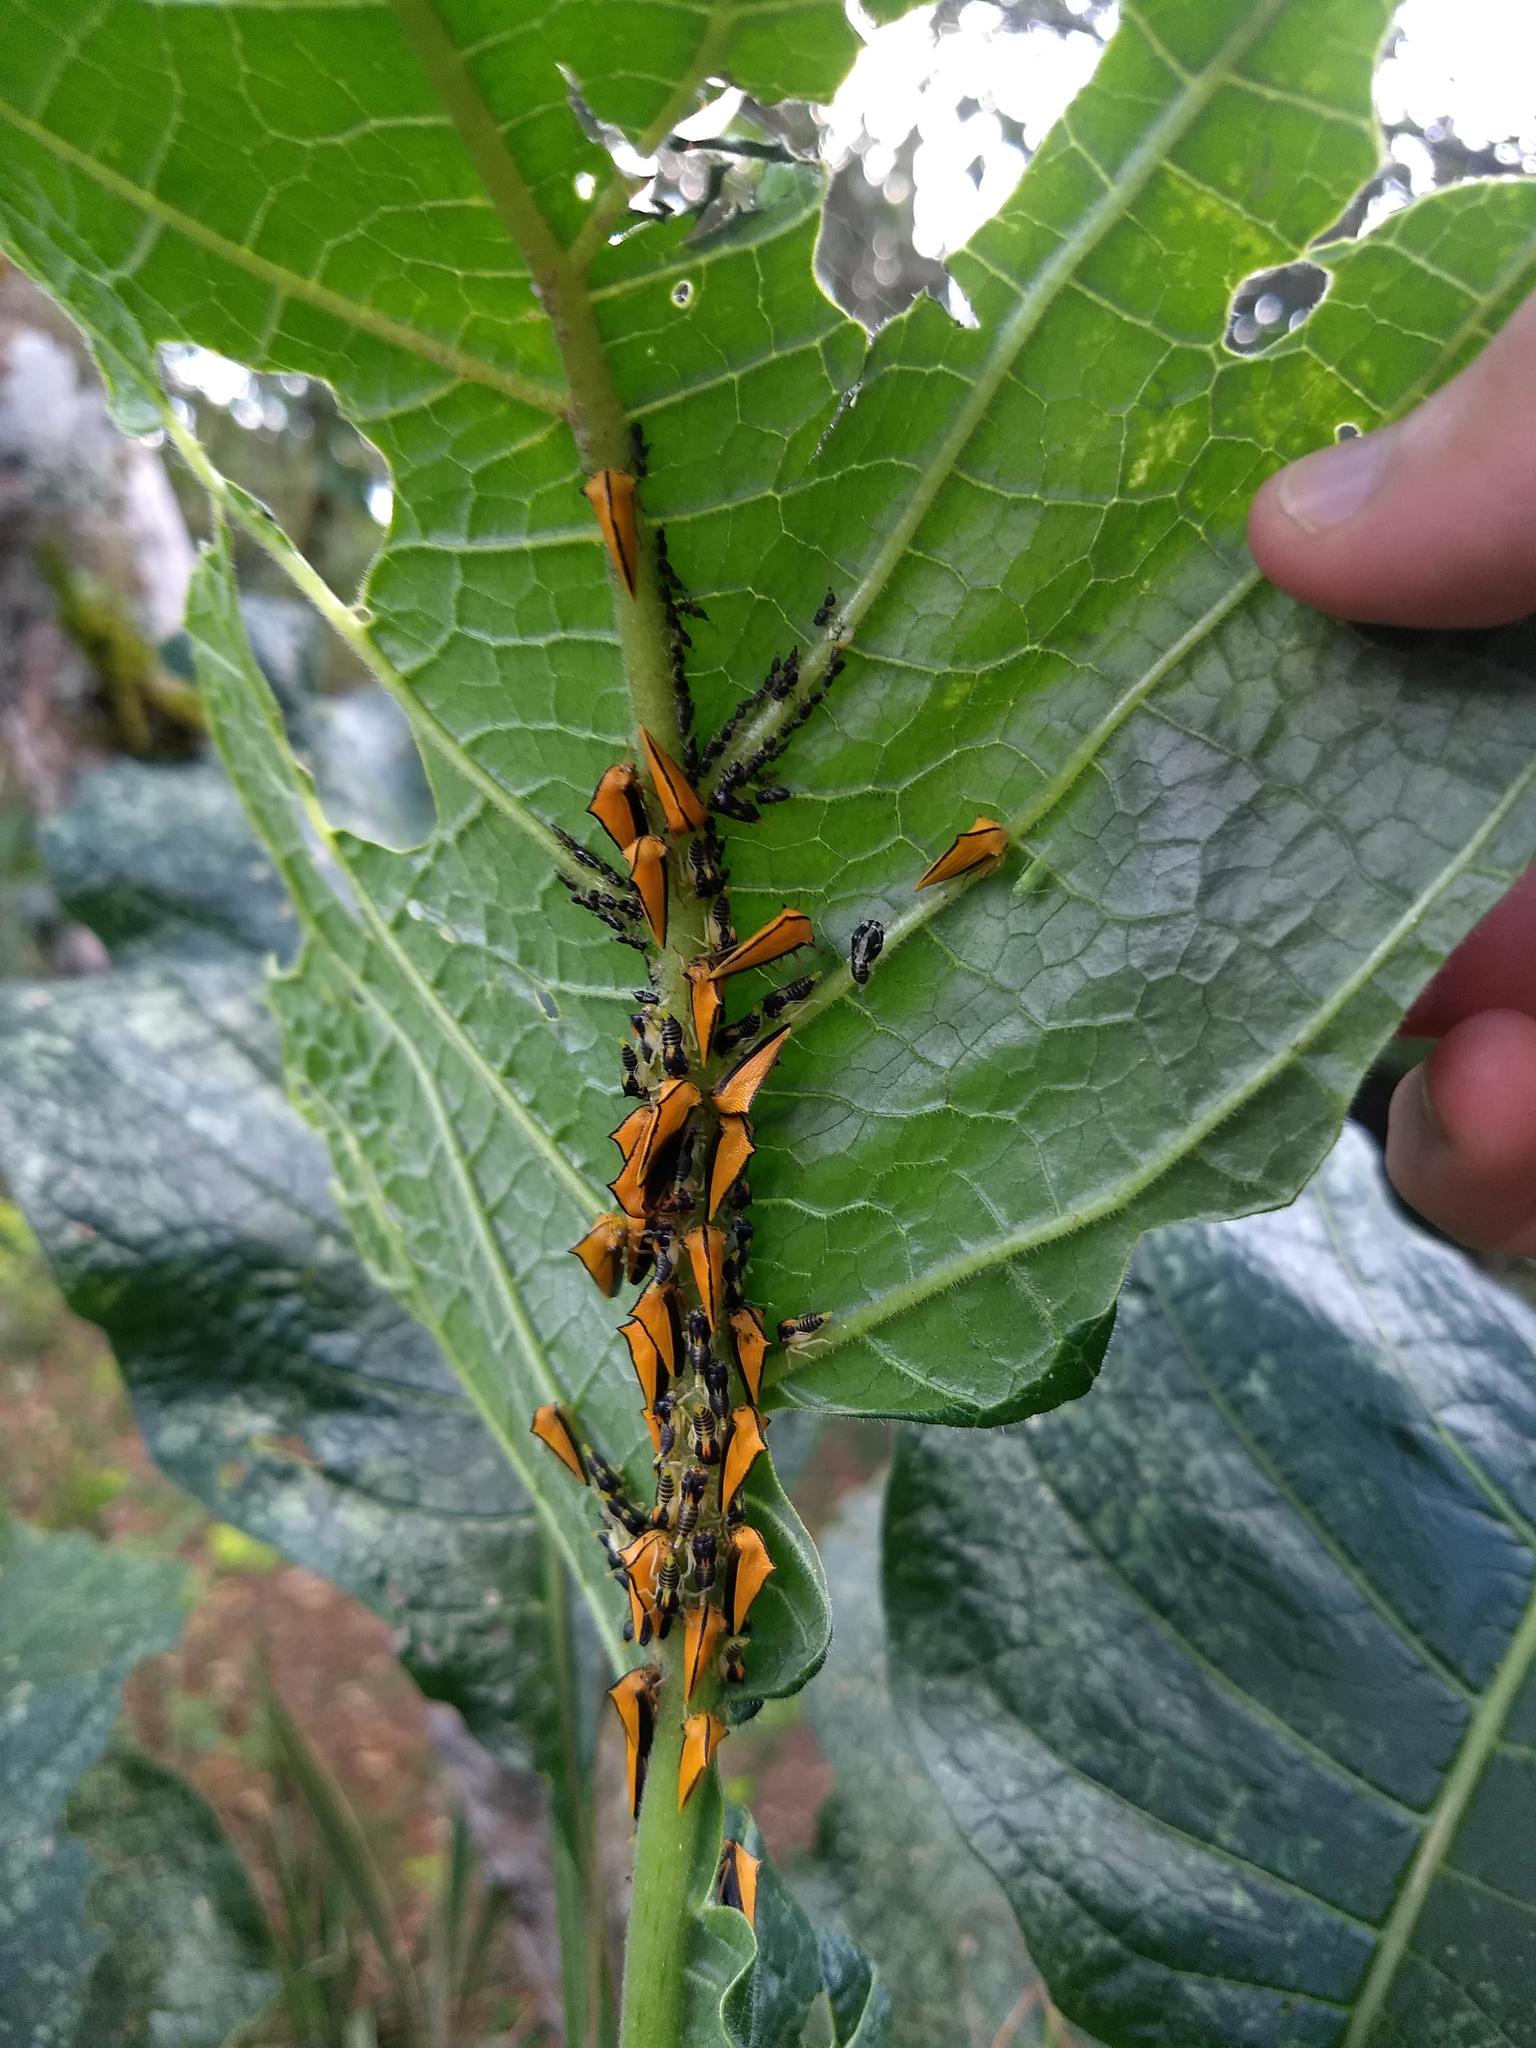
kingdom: Animalia
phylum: Arthropoda
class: Insecta
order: Hemiptera
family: Membracidae
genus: Ennya
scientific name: Ennya sobria
